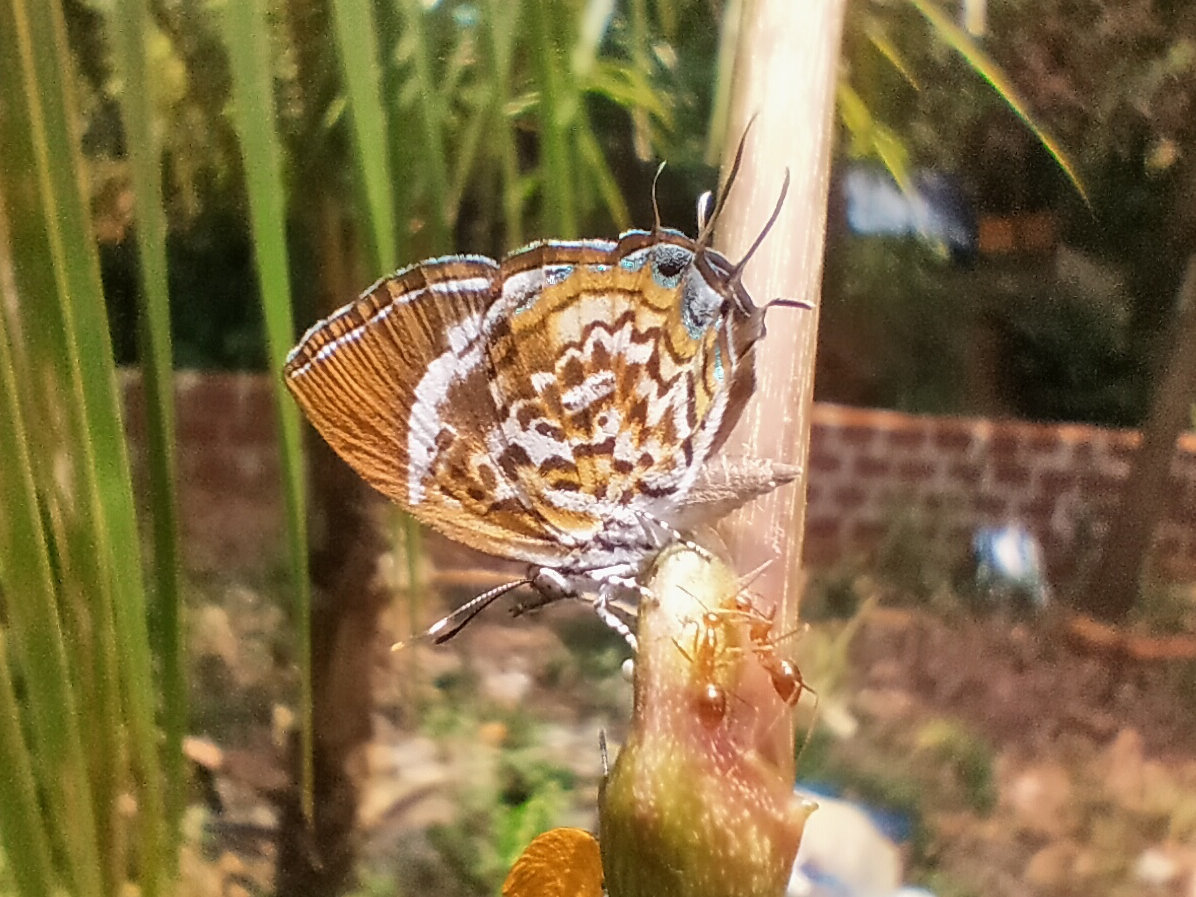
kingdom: Animalia
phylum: Arthropoda
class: Insecta
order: Lepidoptera
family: Lycaenidae
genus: Rathinda
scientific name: Rathinda amor
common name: Monkey puzzle
